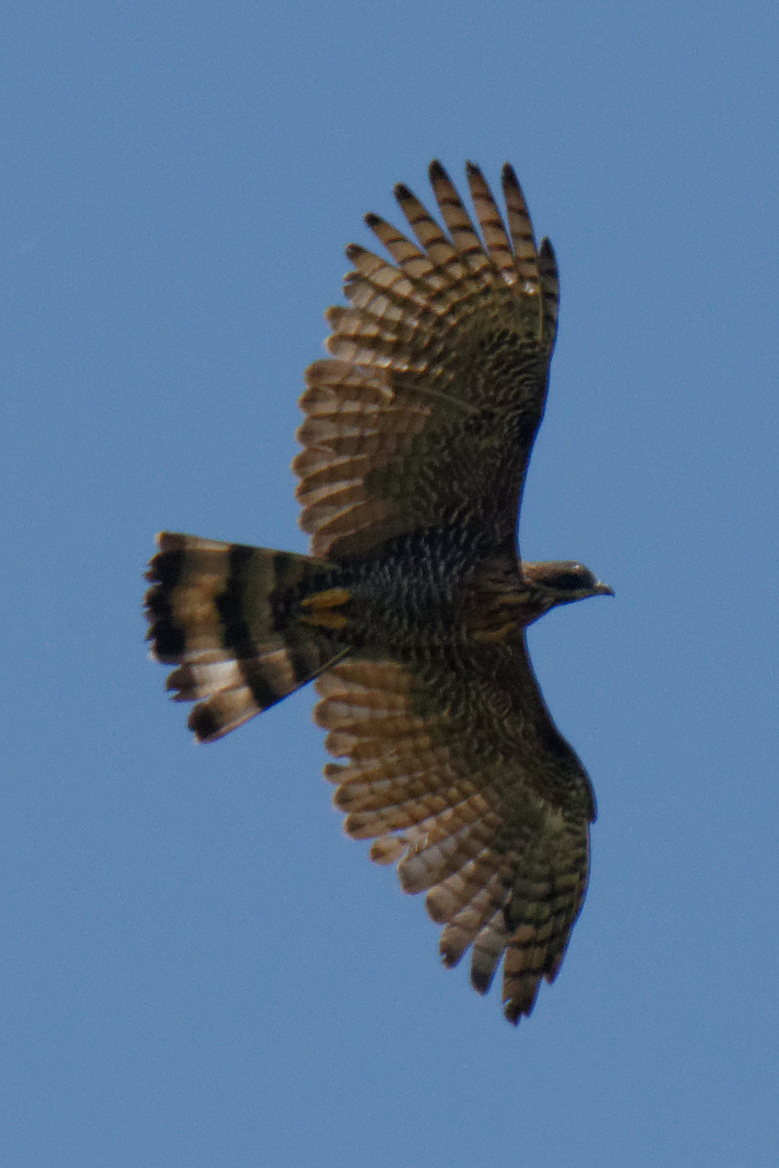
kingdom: Animalia
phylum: Chordata
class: Aves
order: Accipitriformes
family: Accipitridae
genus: Pernis
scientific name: Pernis celebensis
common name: Barred honey buzzard
